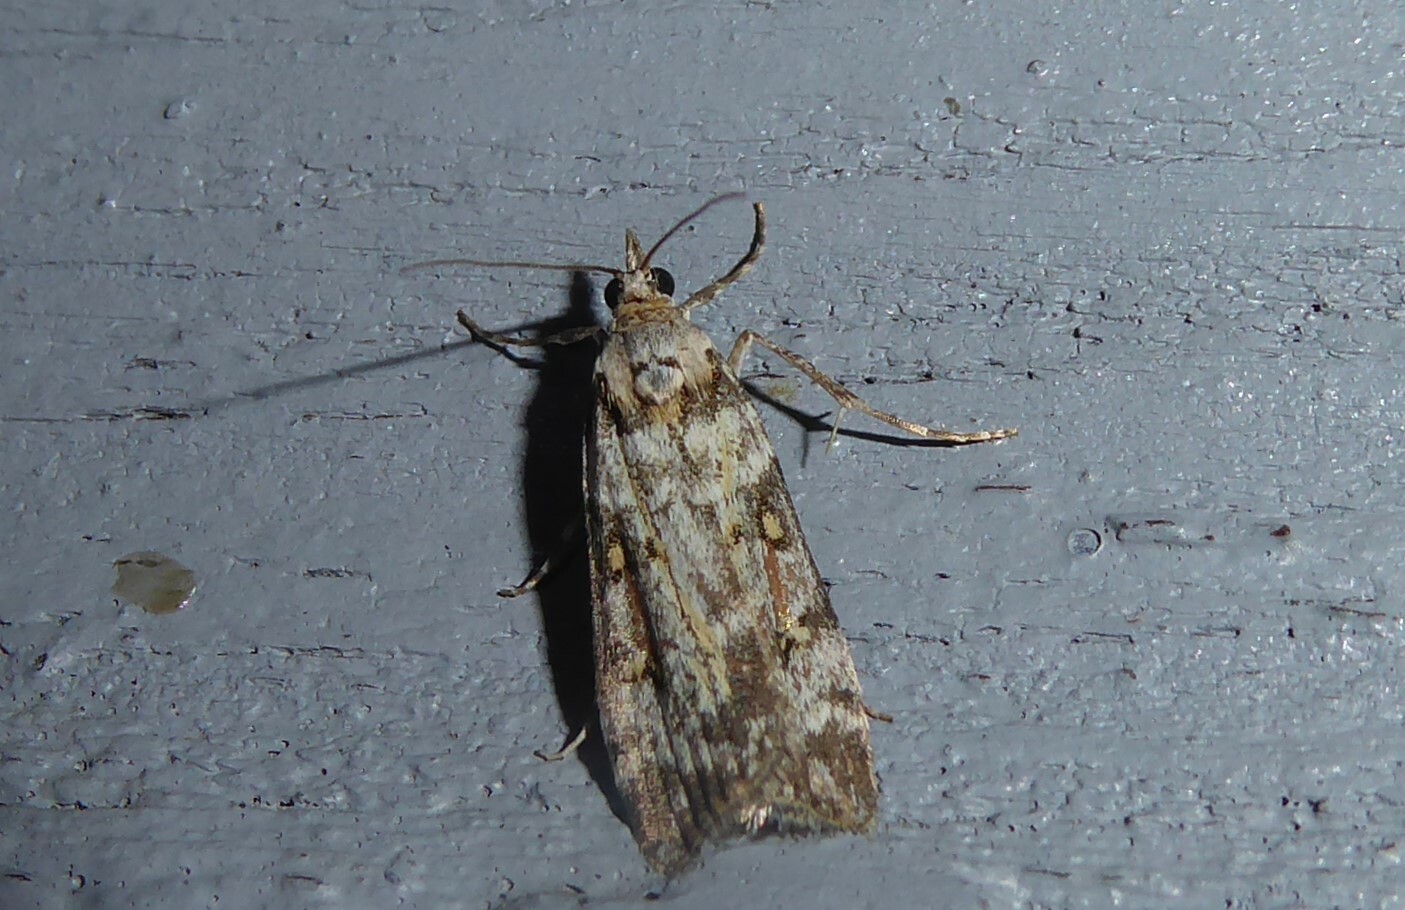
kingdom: Animalia
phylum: Arthropoda
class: Insecta
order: Lepidoptera
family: Crambidae
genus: Scoparia
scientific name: Scoparia tetracycla
